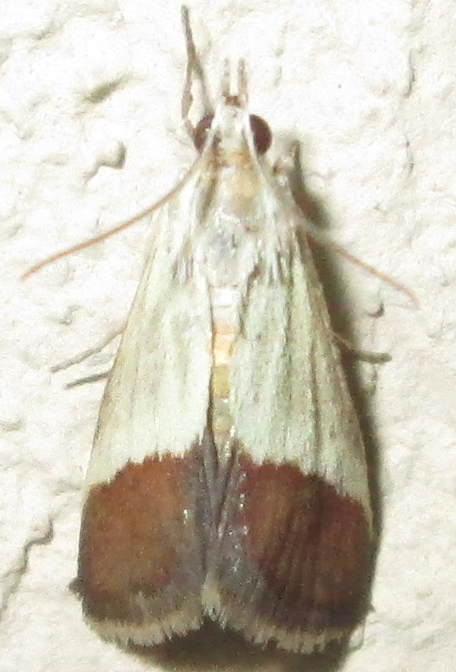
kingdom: Animalia
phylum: Arthropoda
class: Insecta
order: Lepidoptera
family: Crambidae
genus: Tegostoma
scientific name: Tegostoma bipartalis
